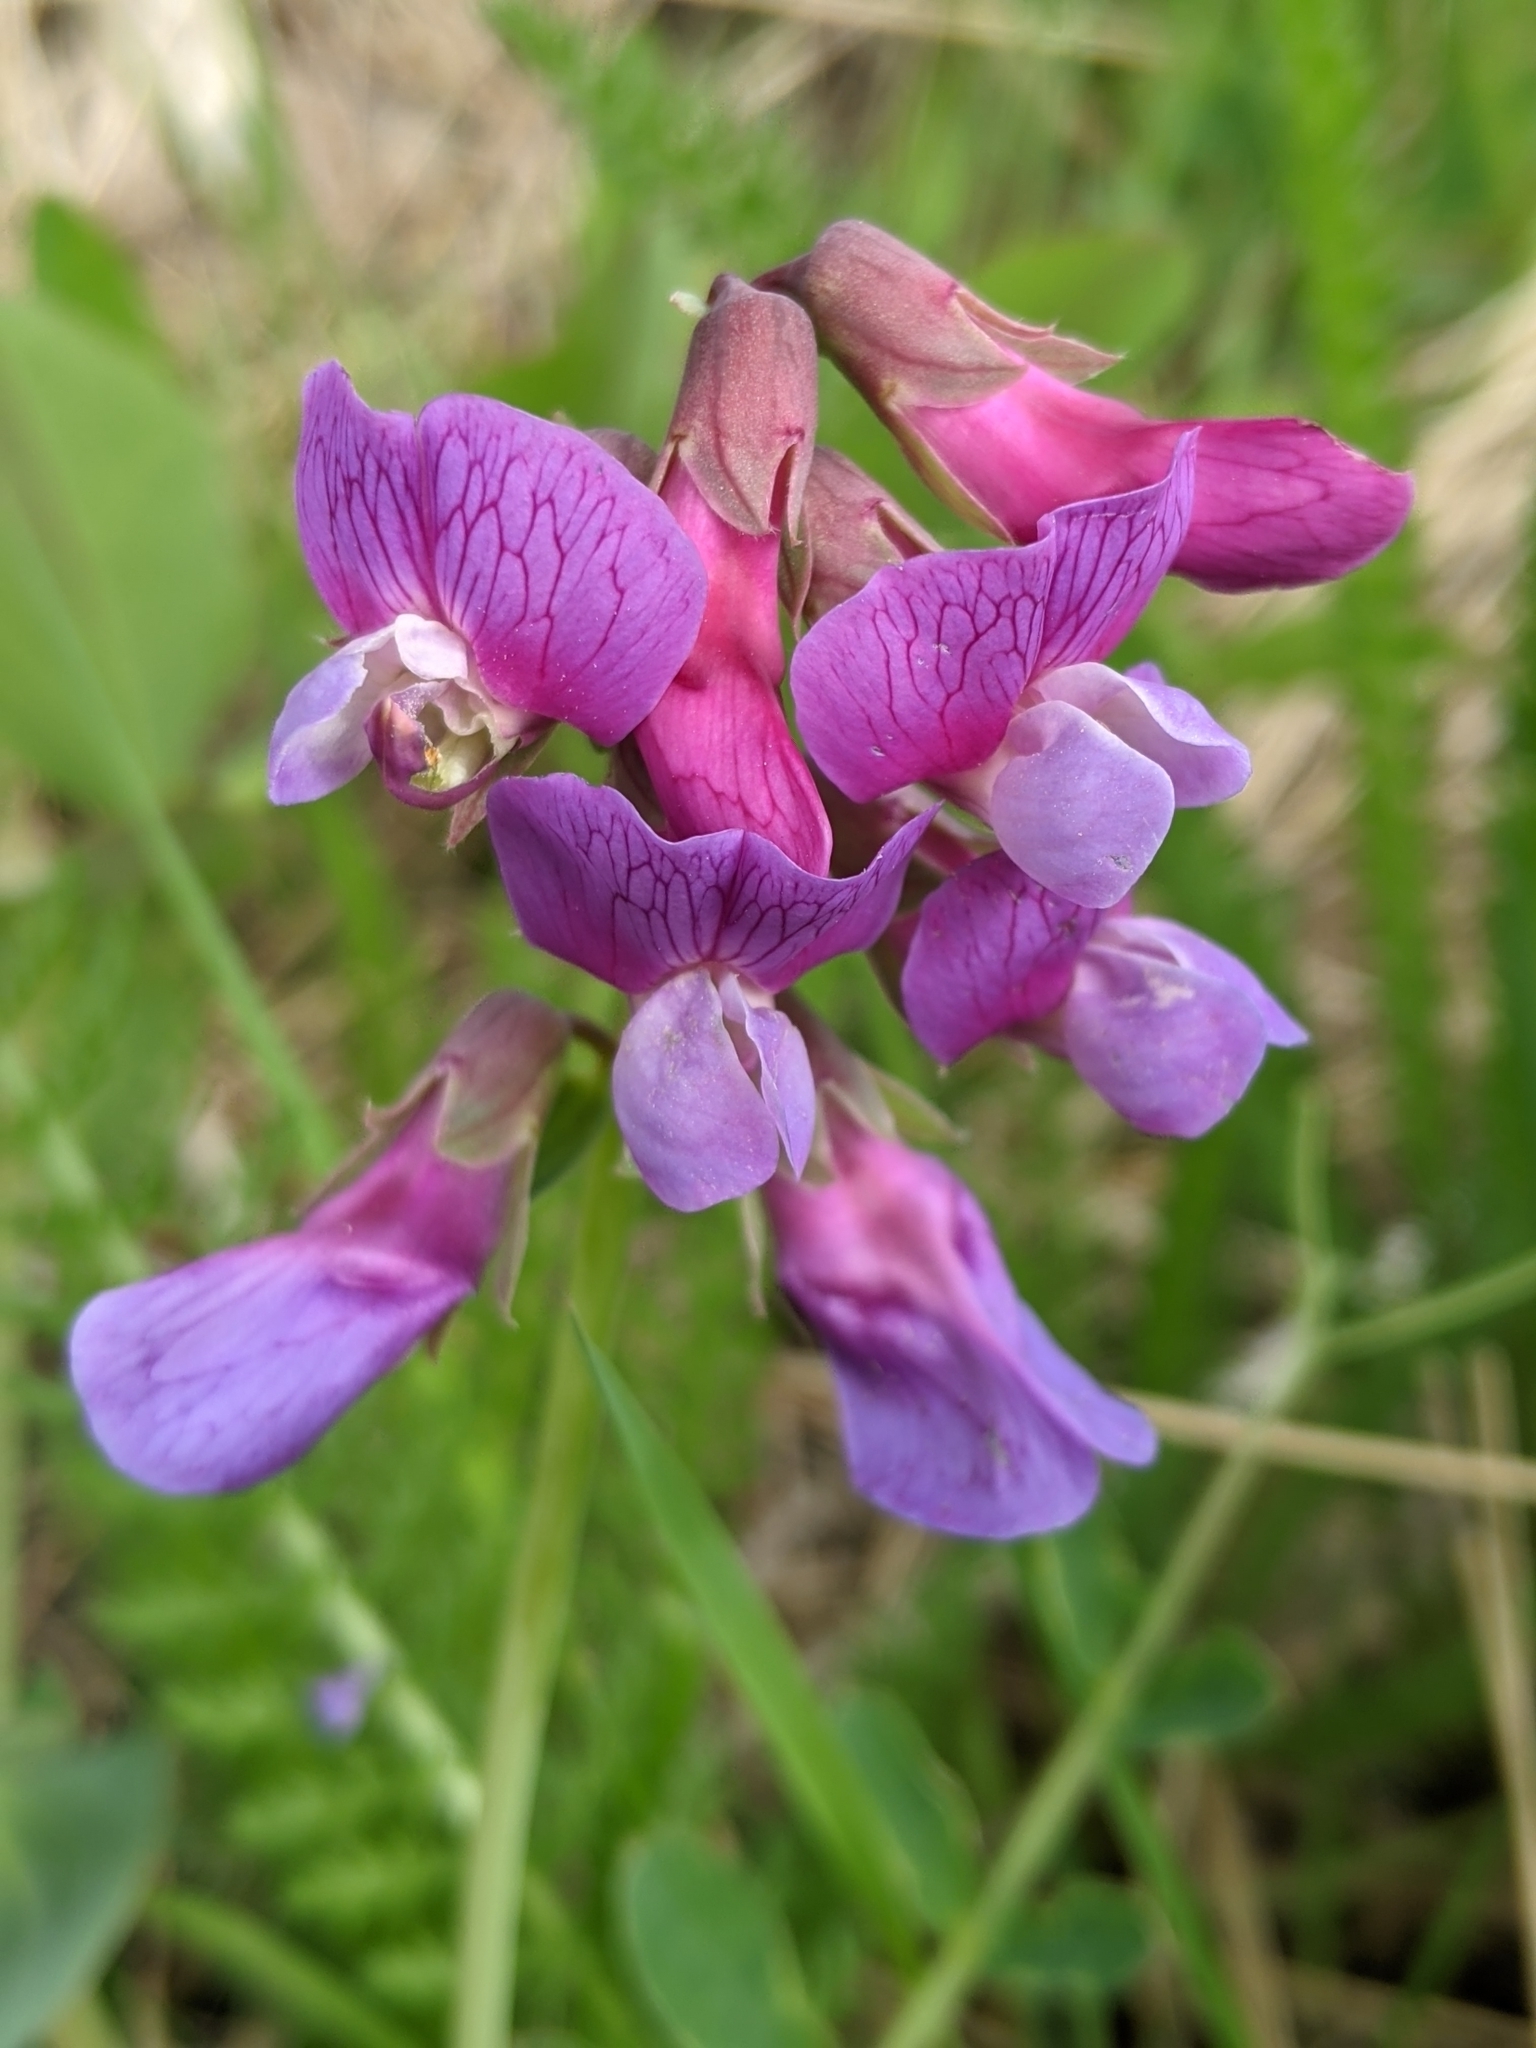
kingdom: Plantae
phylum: Tracheophyta
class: Magnoliopsida
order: Fabales
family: Fabaceae
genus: Lathyrus
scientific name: Lathyrus japonicus
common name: Sea pea
